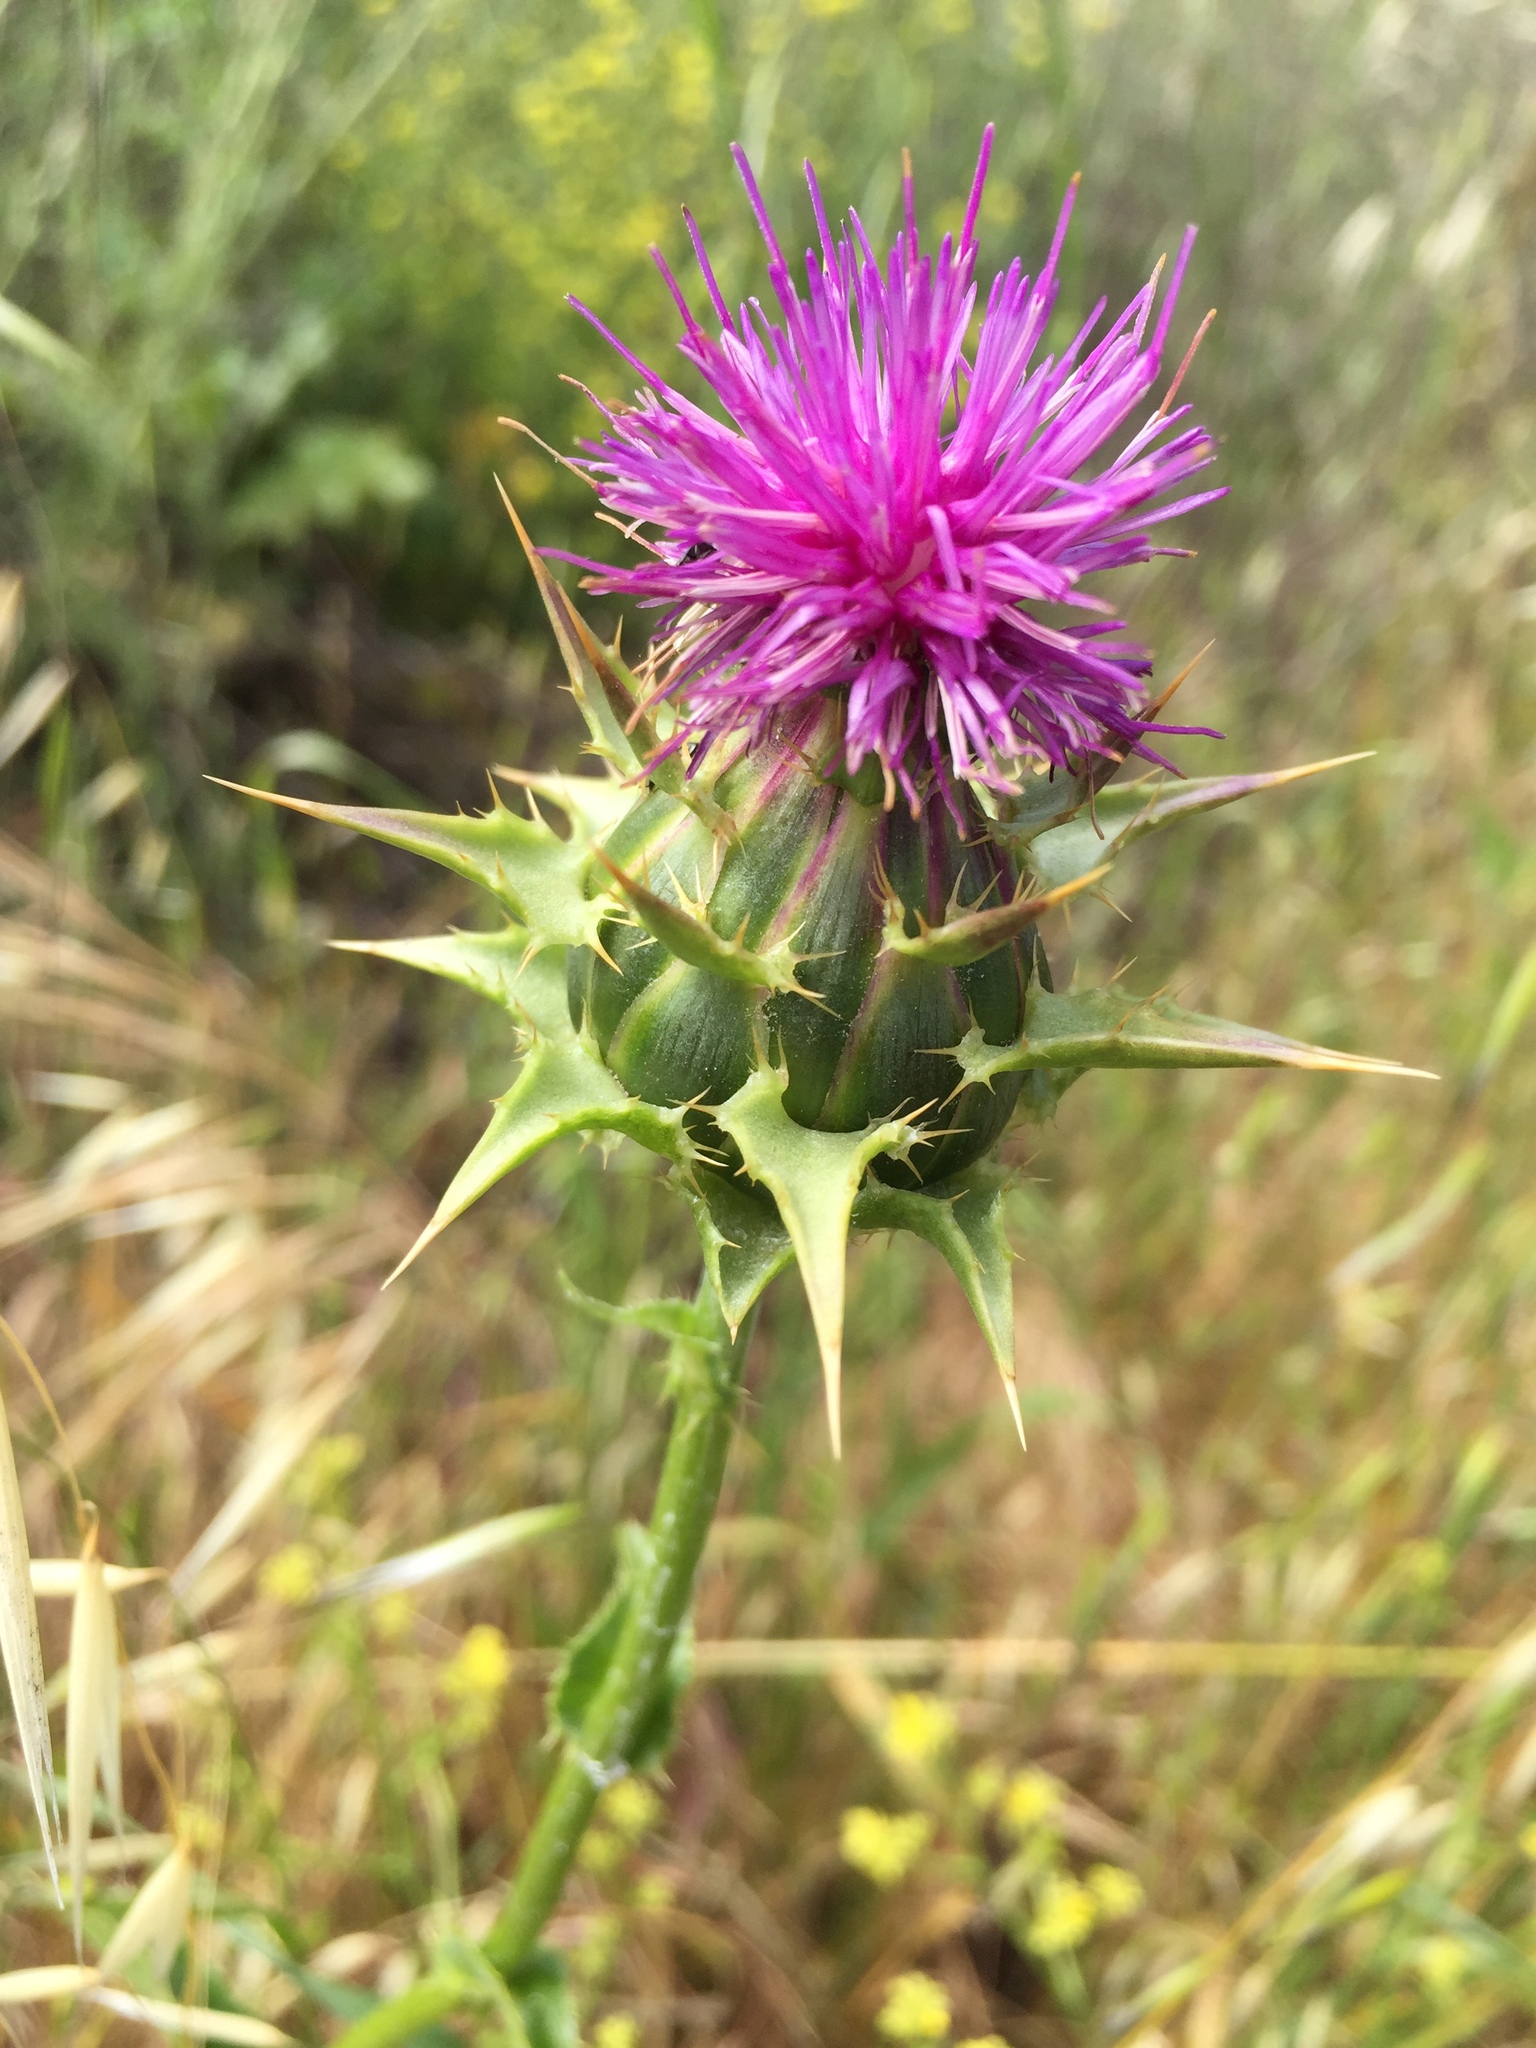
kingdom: Plantae
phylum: Tracheophyta
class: Magnoliopsida
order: Asterales
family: Asteraceae
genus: Silybum
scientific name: Silybum marianum
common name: Milk thistle
